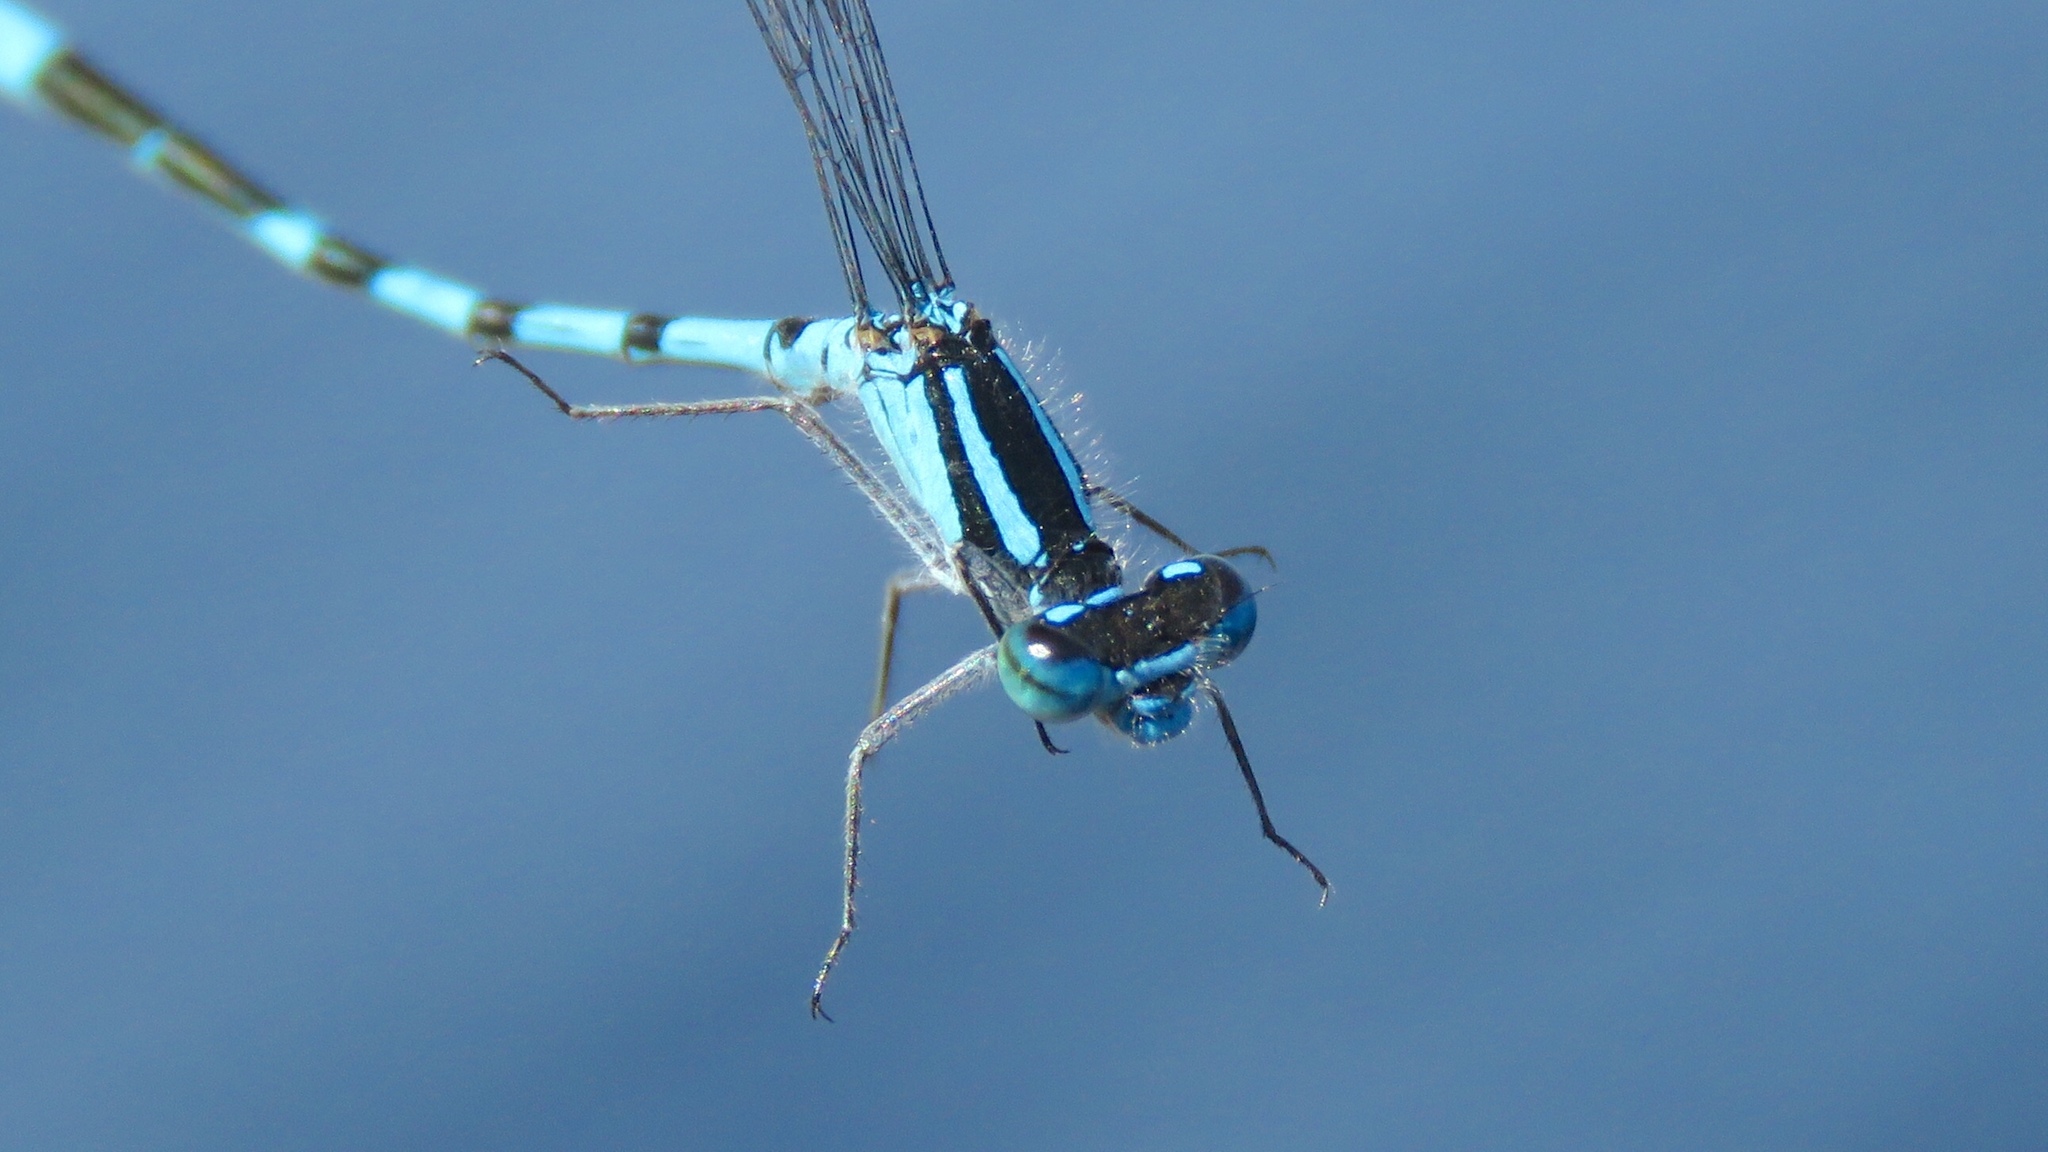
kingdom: Animalia
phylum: Arthropoda
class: Insecta
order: Odonata
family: Coenagrionidae
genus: Enallagma
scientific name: Enallagma hageni
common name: Hagen's bluet
